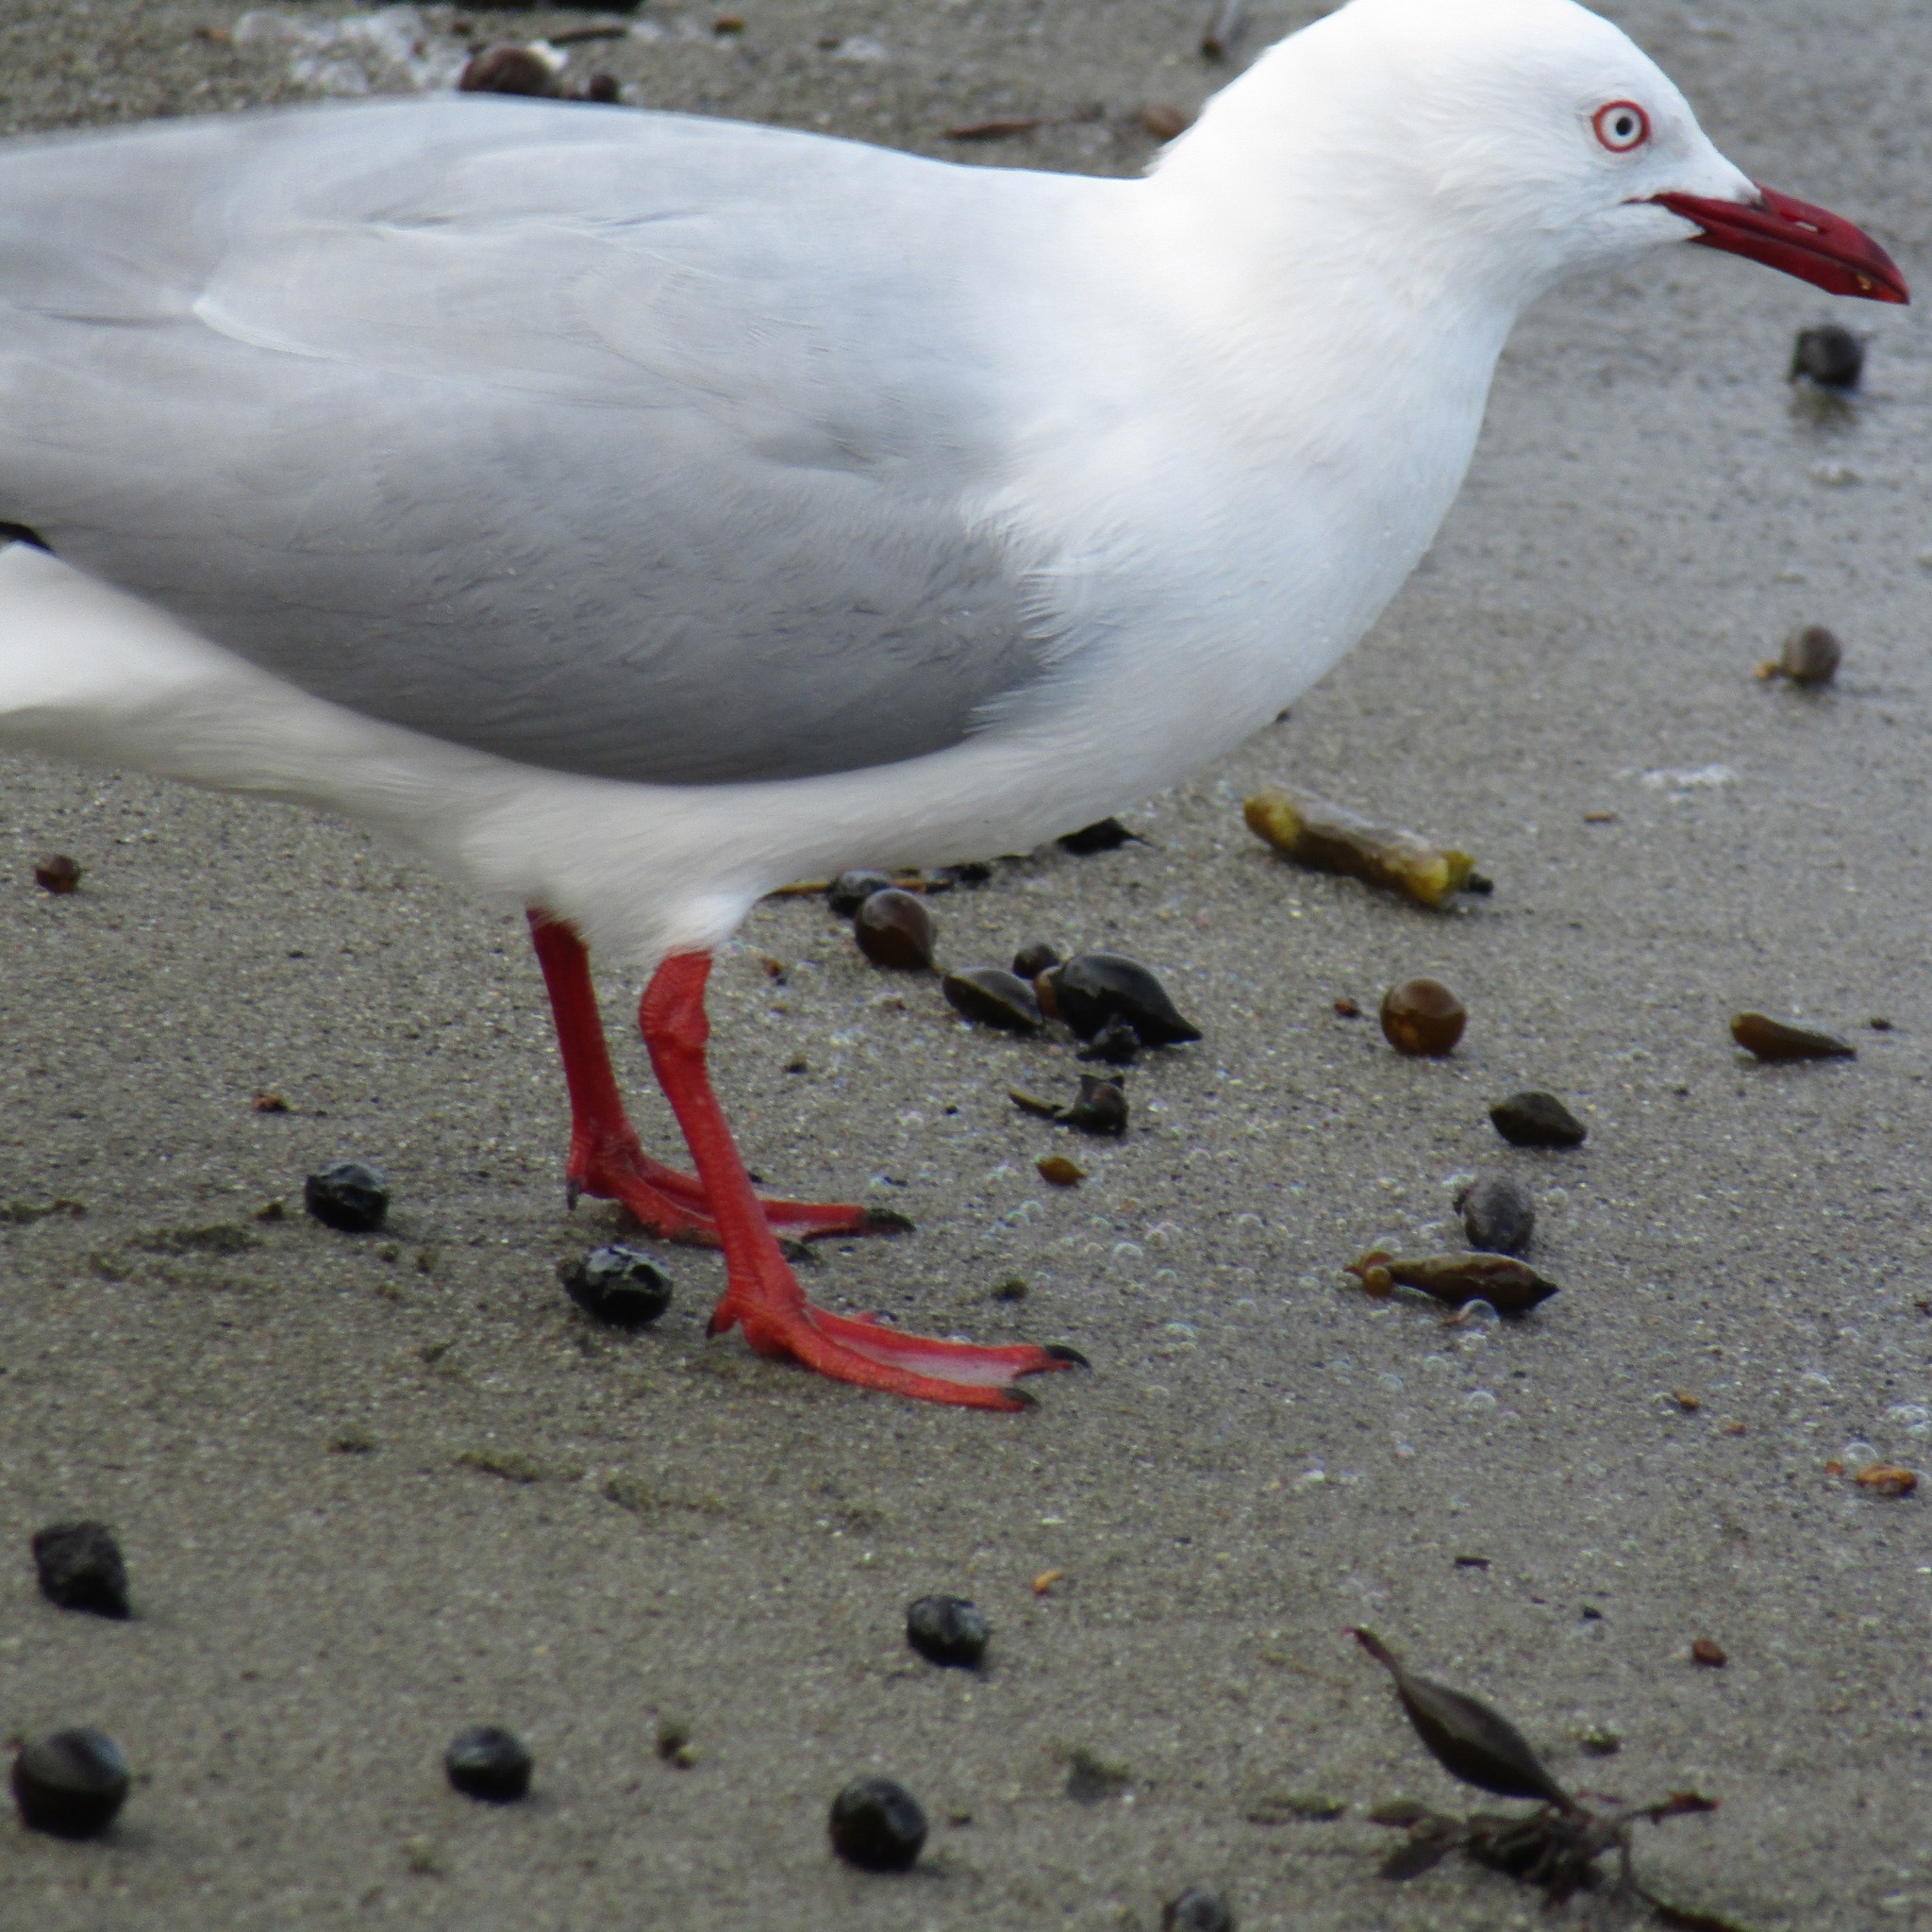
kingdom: Animalia
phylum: Chordata
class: Aves
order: Charadriiformes
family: Laridae
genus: Chroicocephalus
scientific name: Chroicocephalus novaehollandiae
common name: Silver gull
